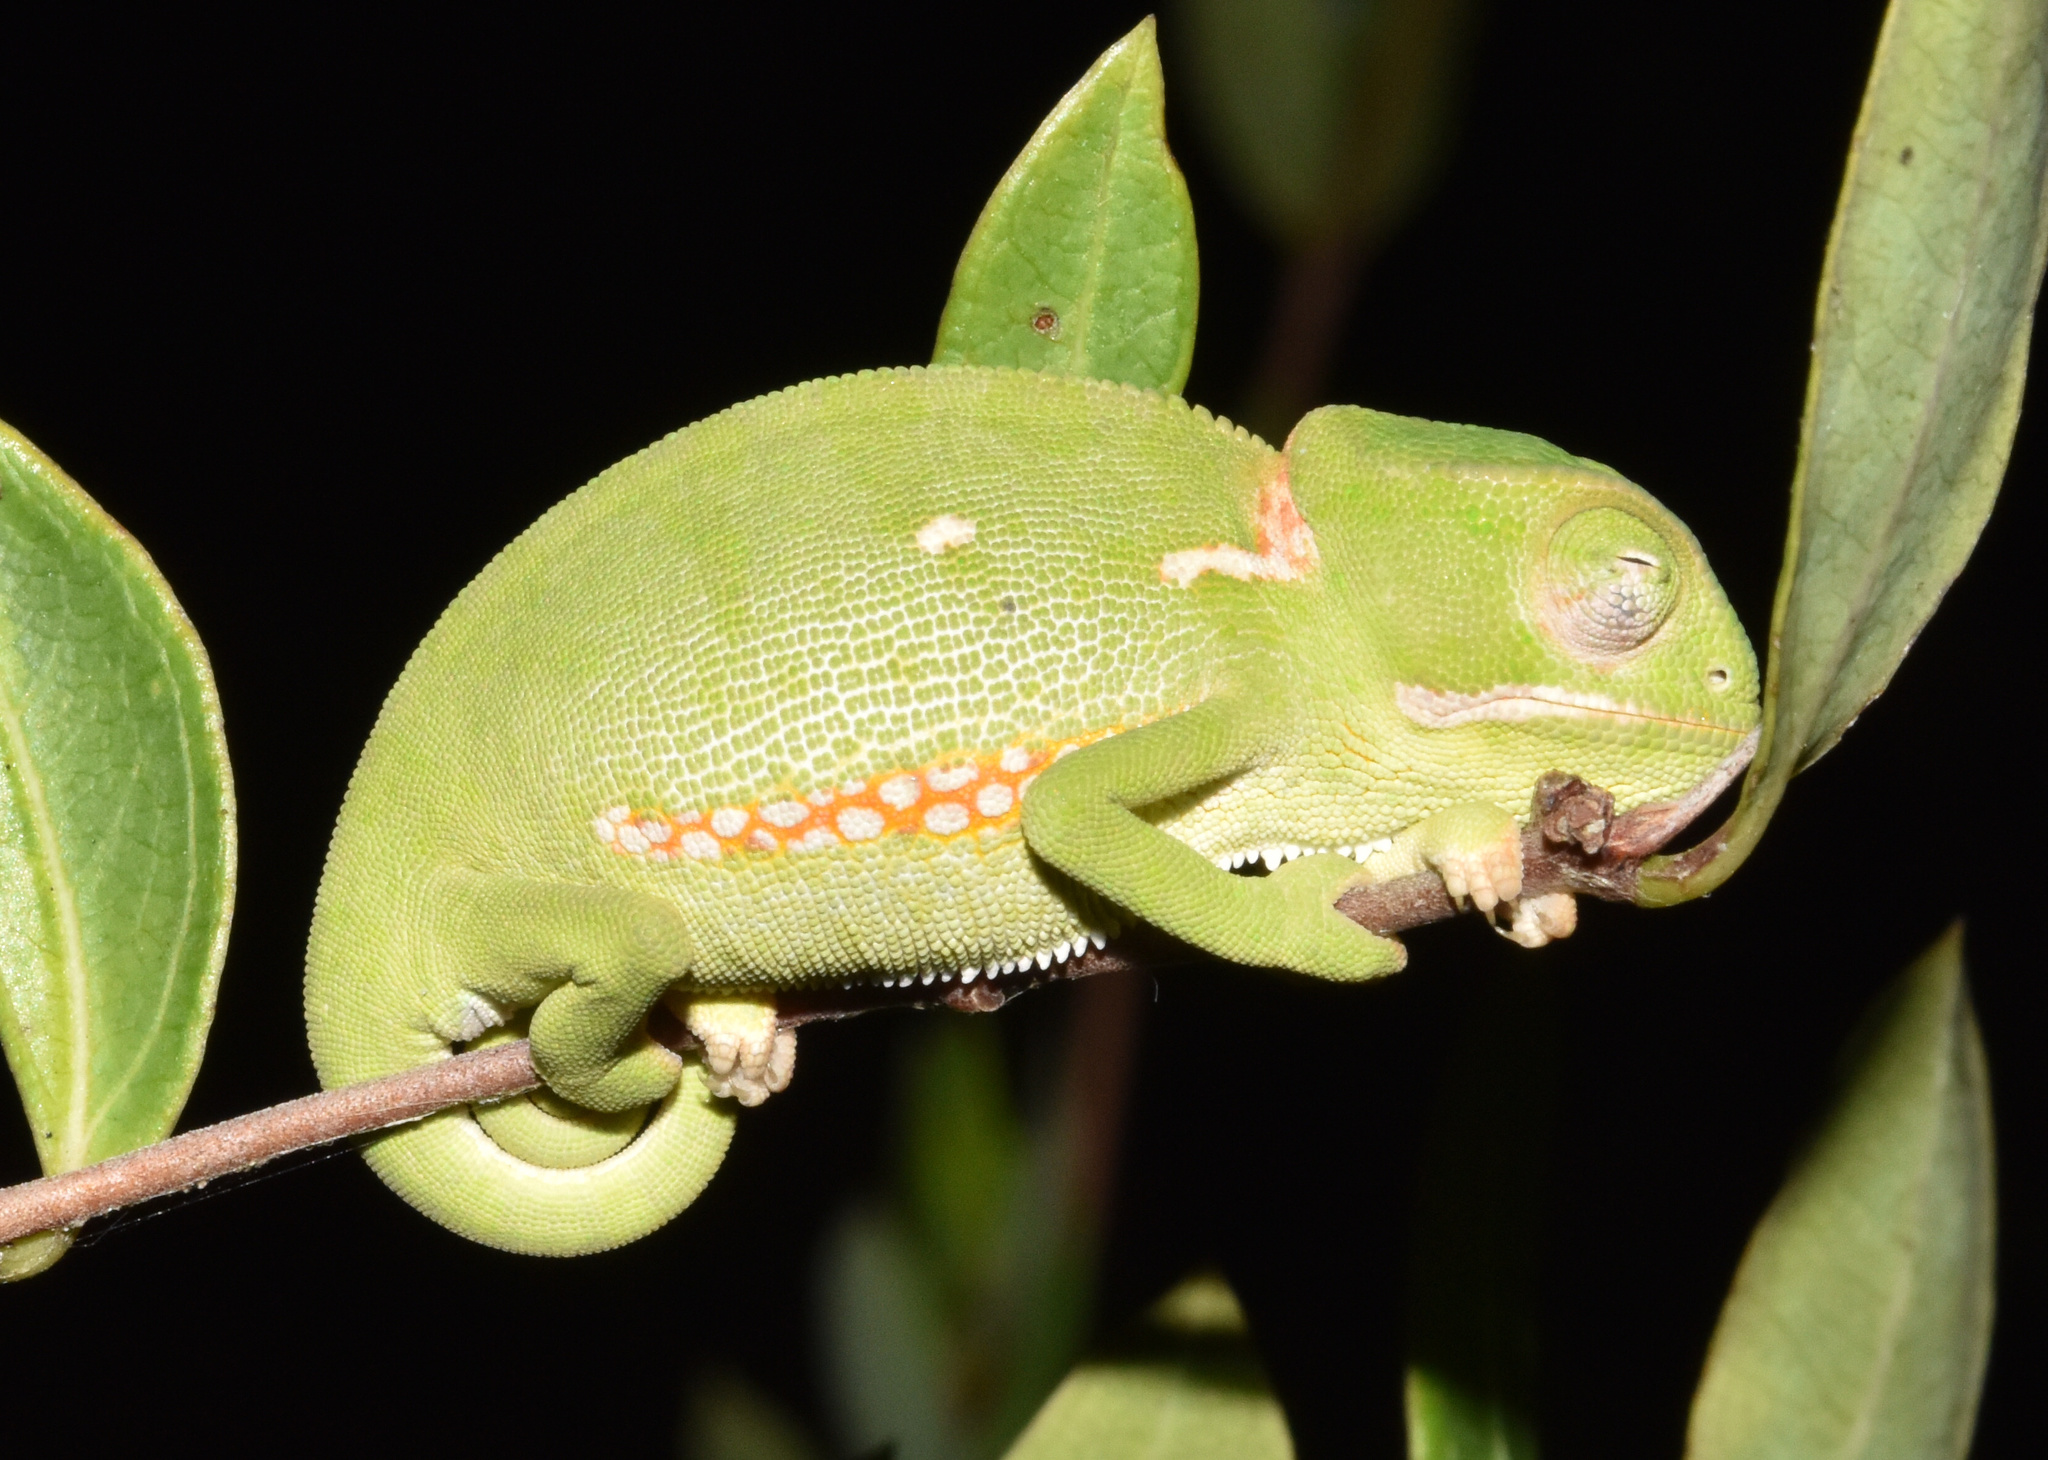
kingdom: Animalia
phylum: Chordata
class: Squamata
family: Chamaeleonidae
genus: Chamaeleo
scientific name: Chamaeleo dilepis
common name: Flapneck chameleon
